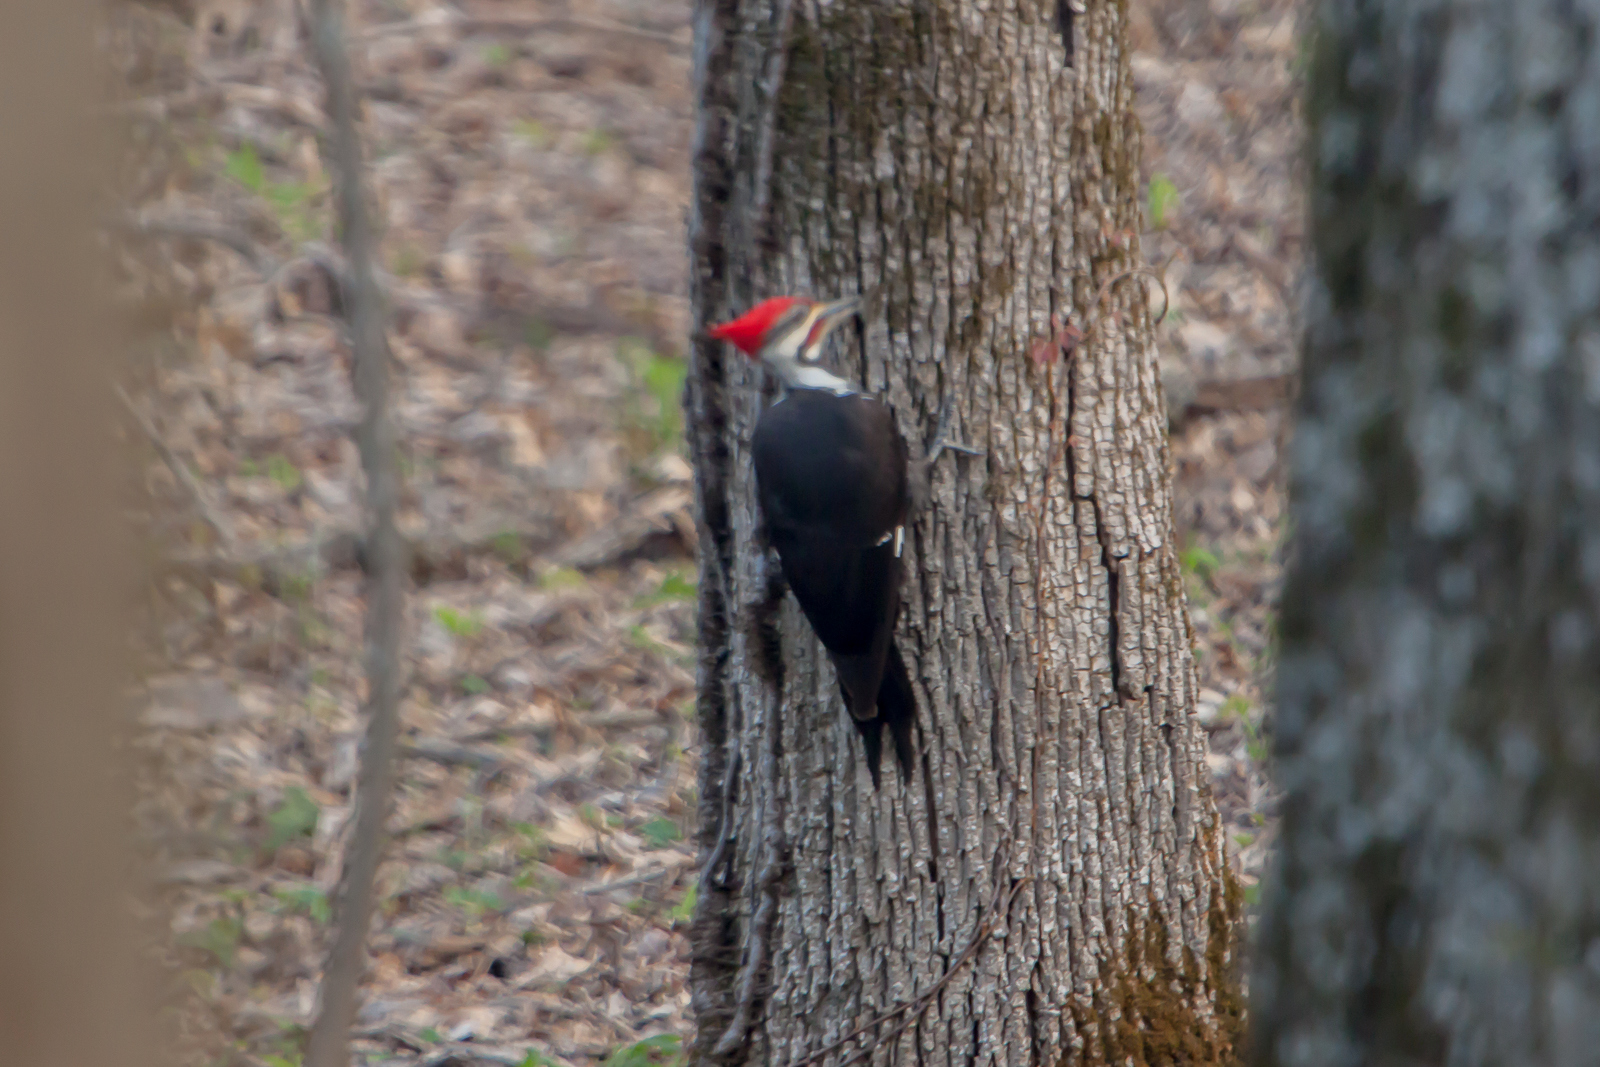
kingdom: Animalia
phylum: Chordata
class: Aves
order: Piciformes
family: Picidae
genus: Dryocopus
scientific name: Dryocopus pileatus
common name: Pileated woodpecker
